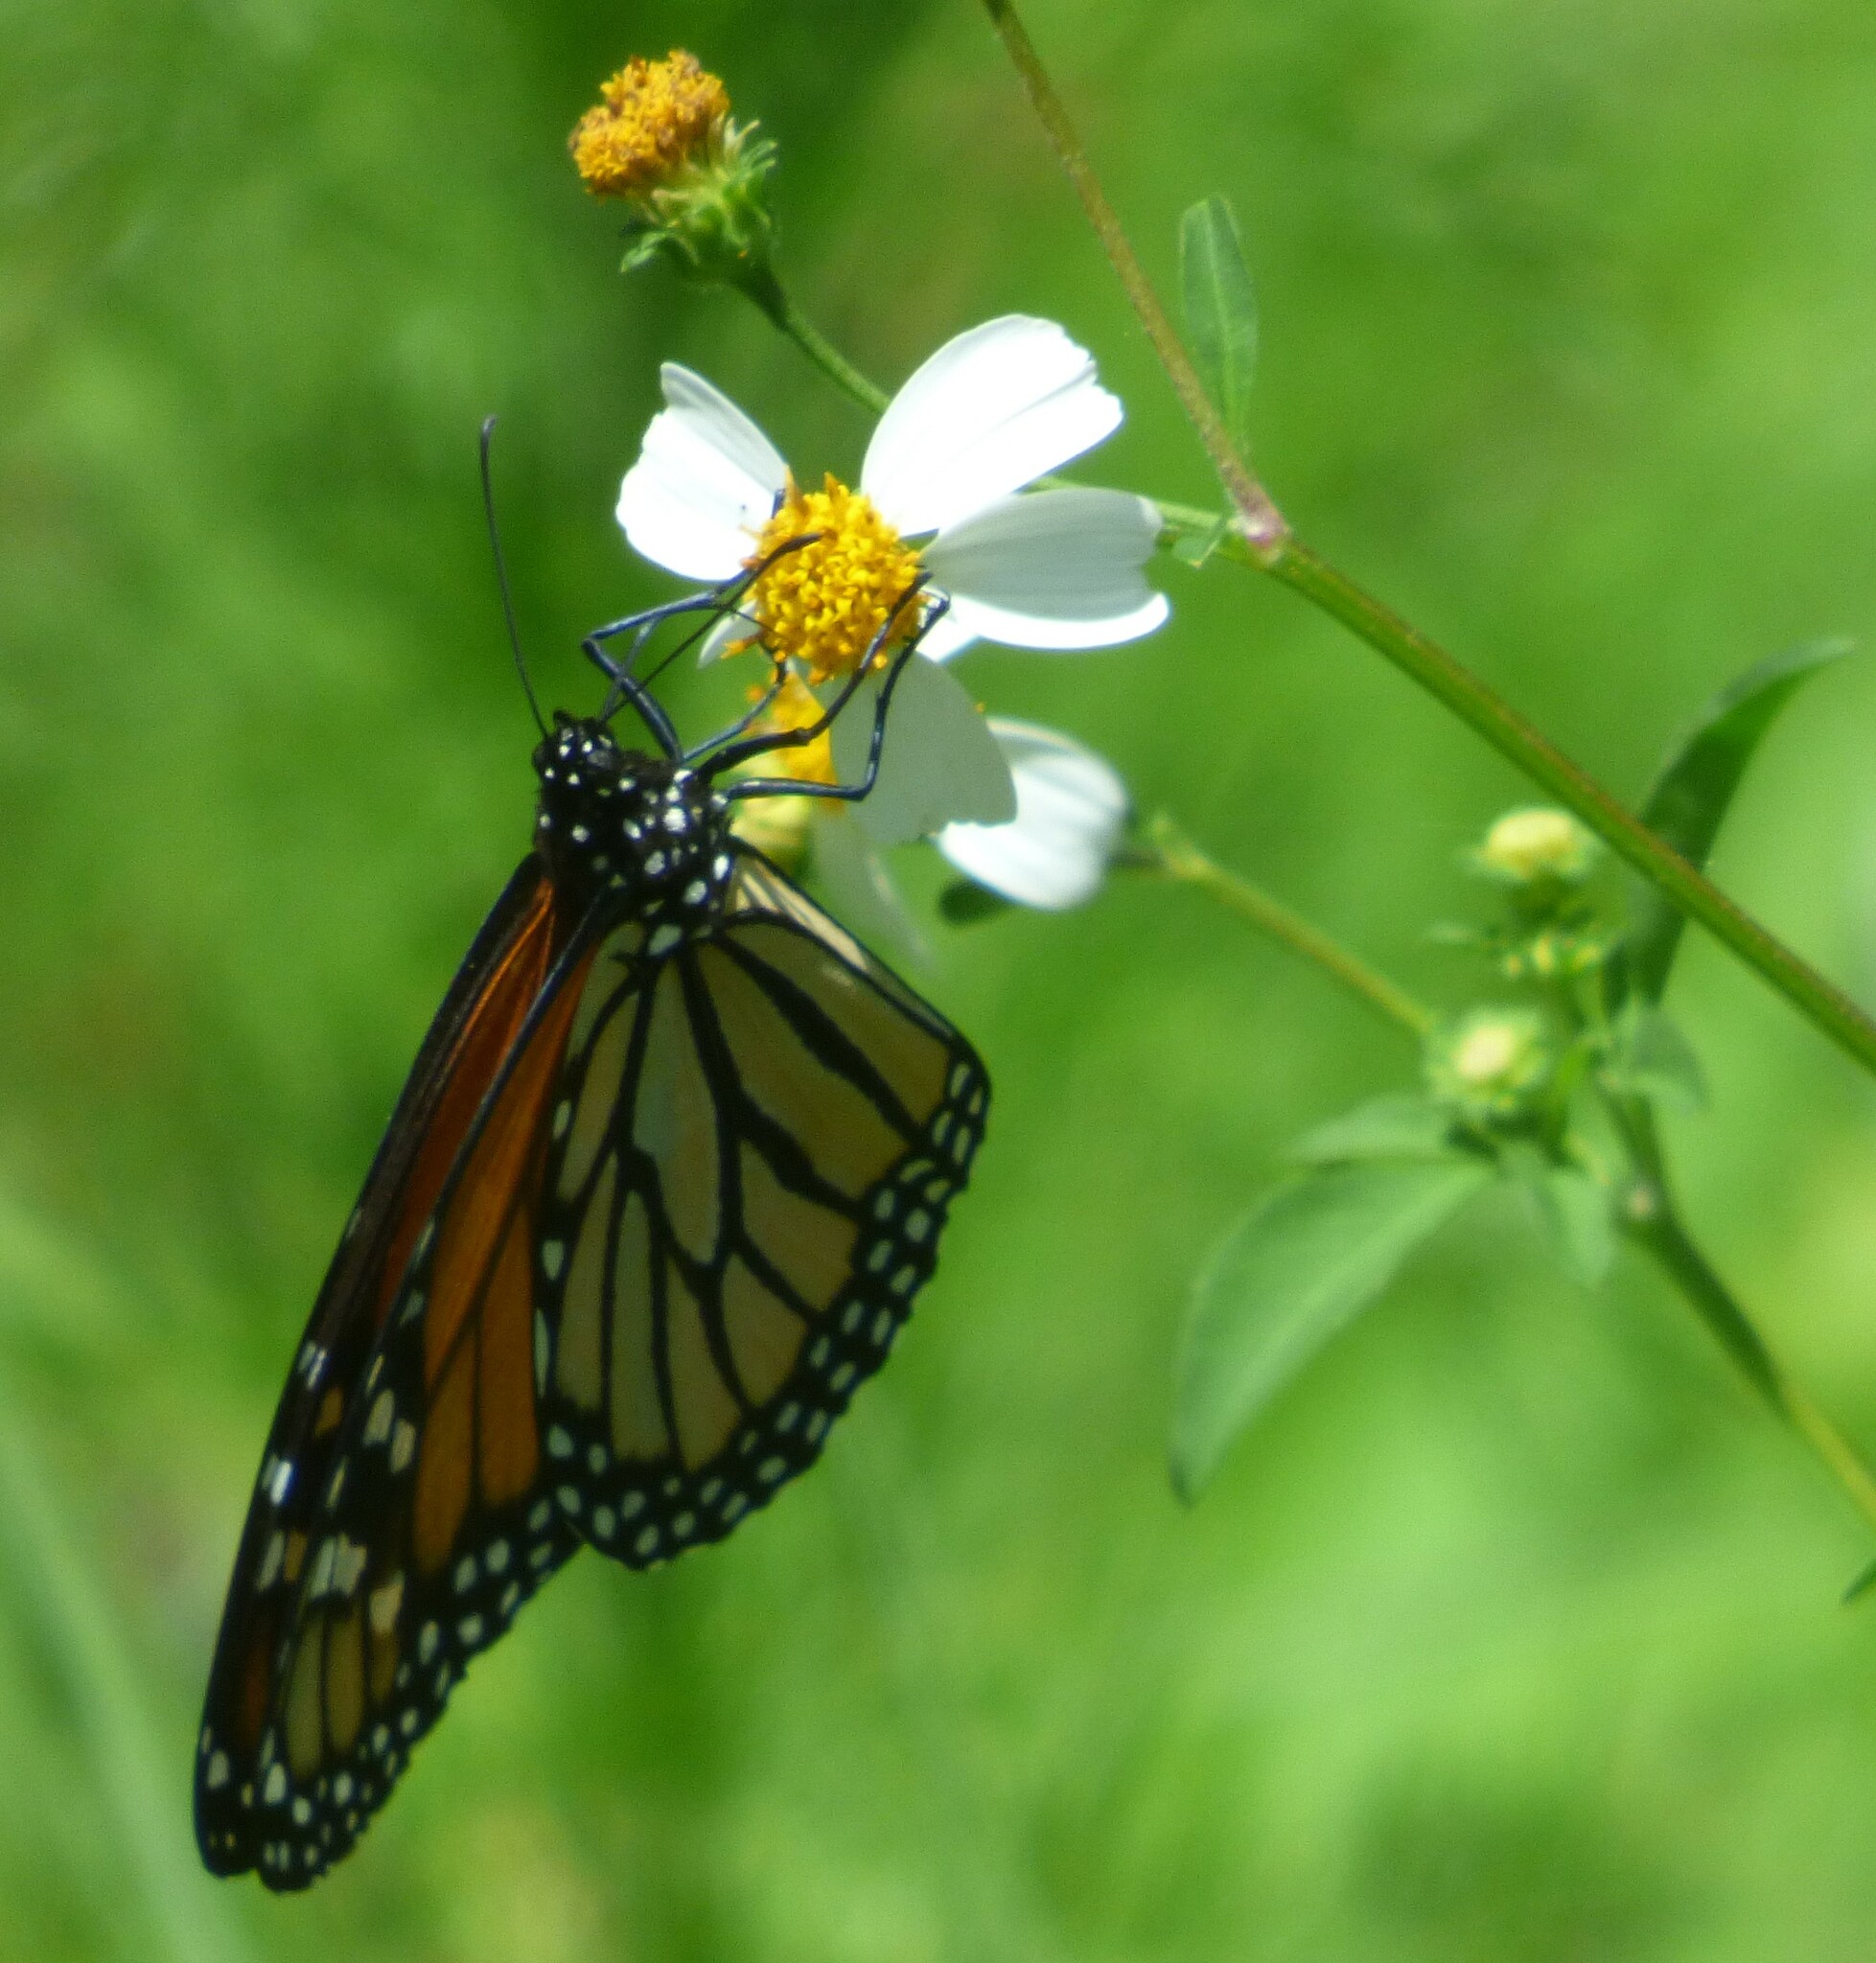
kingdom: Animalia
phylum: Arthropoda
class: Insecta
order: Lepidoptera
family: Nymphalidae
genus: Danaus
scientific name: Danaus plexippus
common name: Monarch
